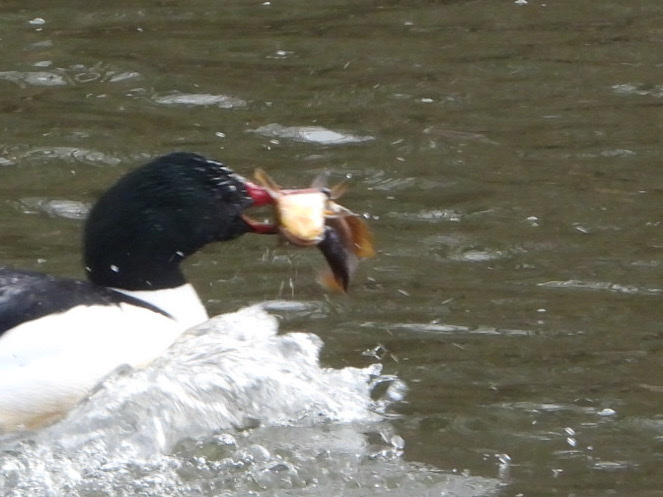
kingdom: Animalia
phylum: Chordata
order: Siluriformes
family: Ictaluridae
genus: Ameiurus
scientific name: Ameiurus nebulosus
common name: Brown bullhead
